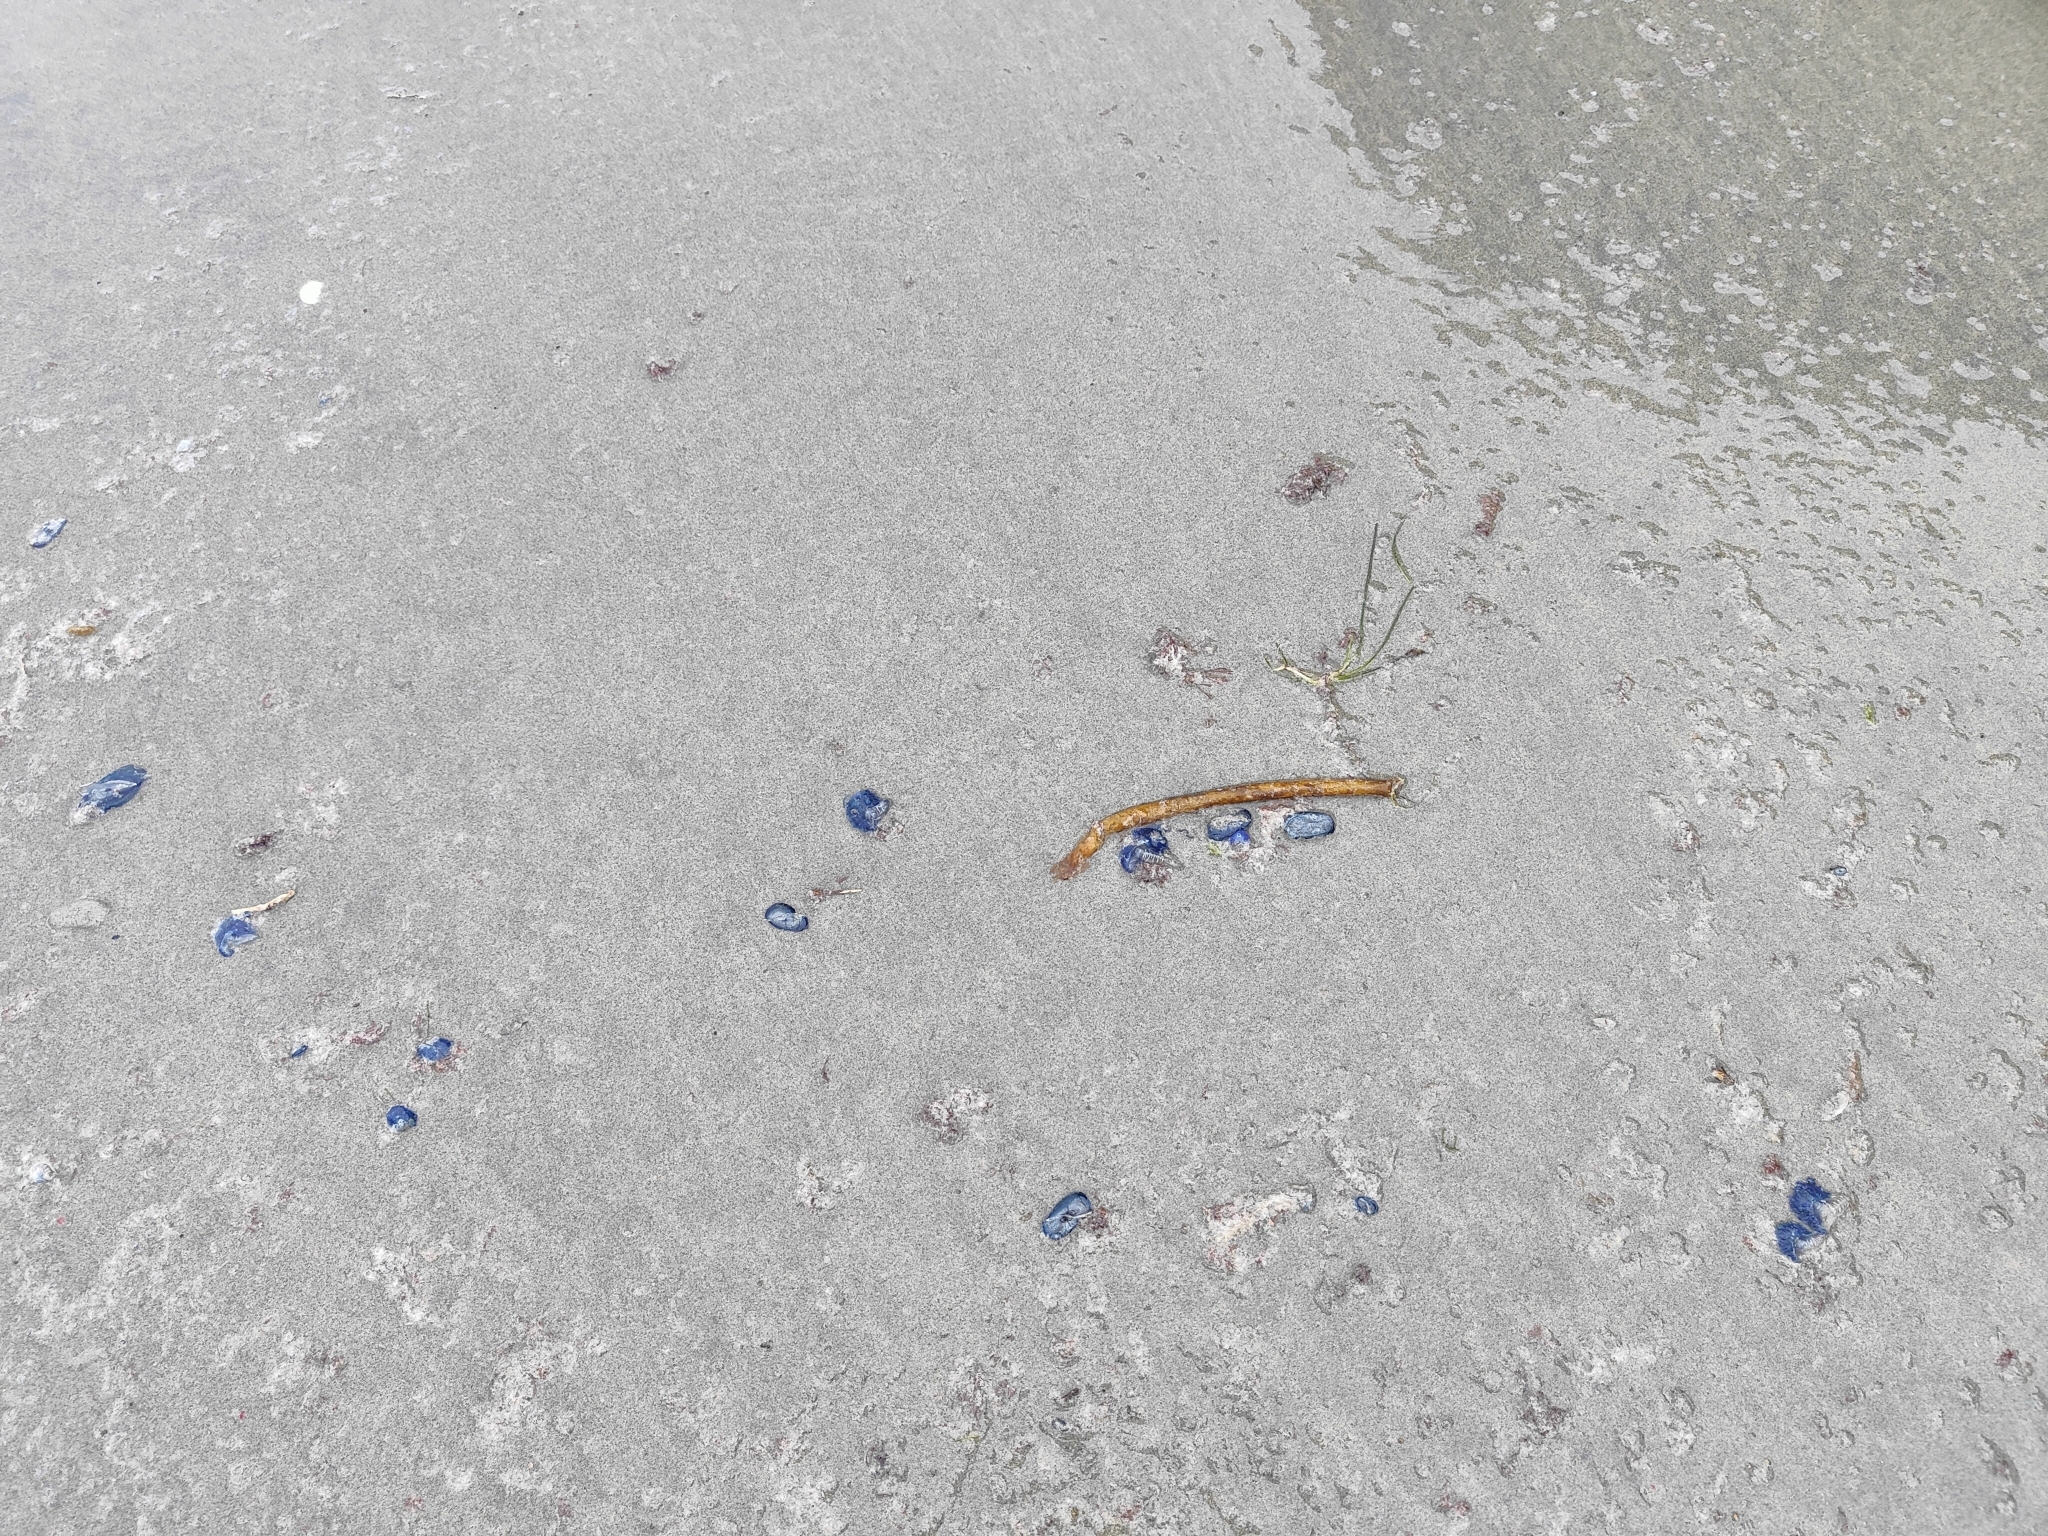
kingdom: Animalia
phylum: Cnidaria
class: Hydrozoa
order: Siphonophorae
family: Physaliidae
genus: Physalia
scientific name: Physalia physalis
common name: Portuguese man-of-war
